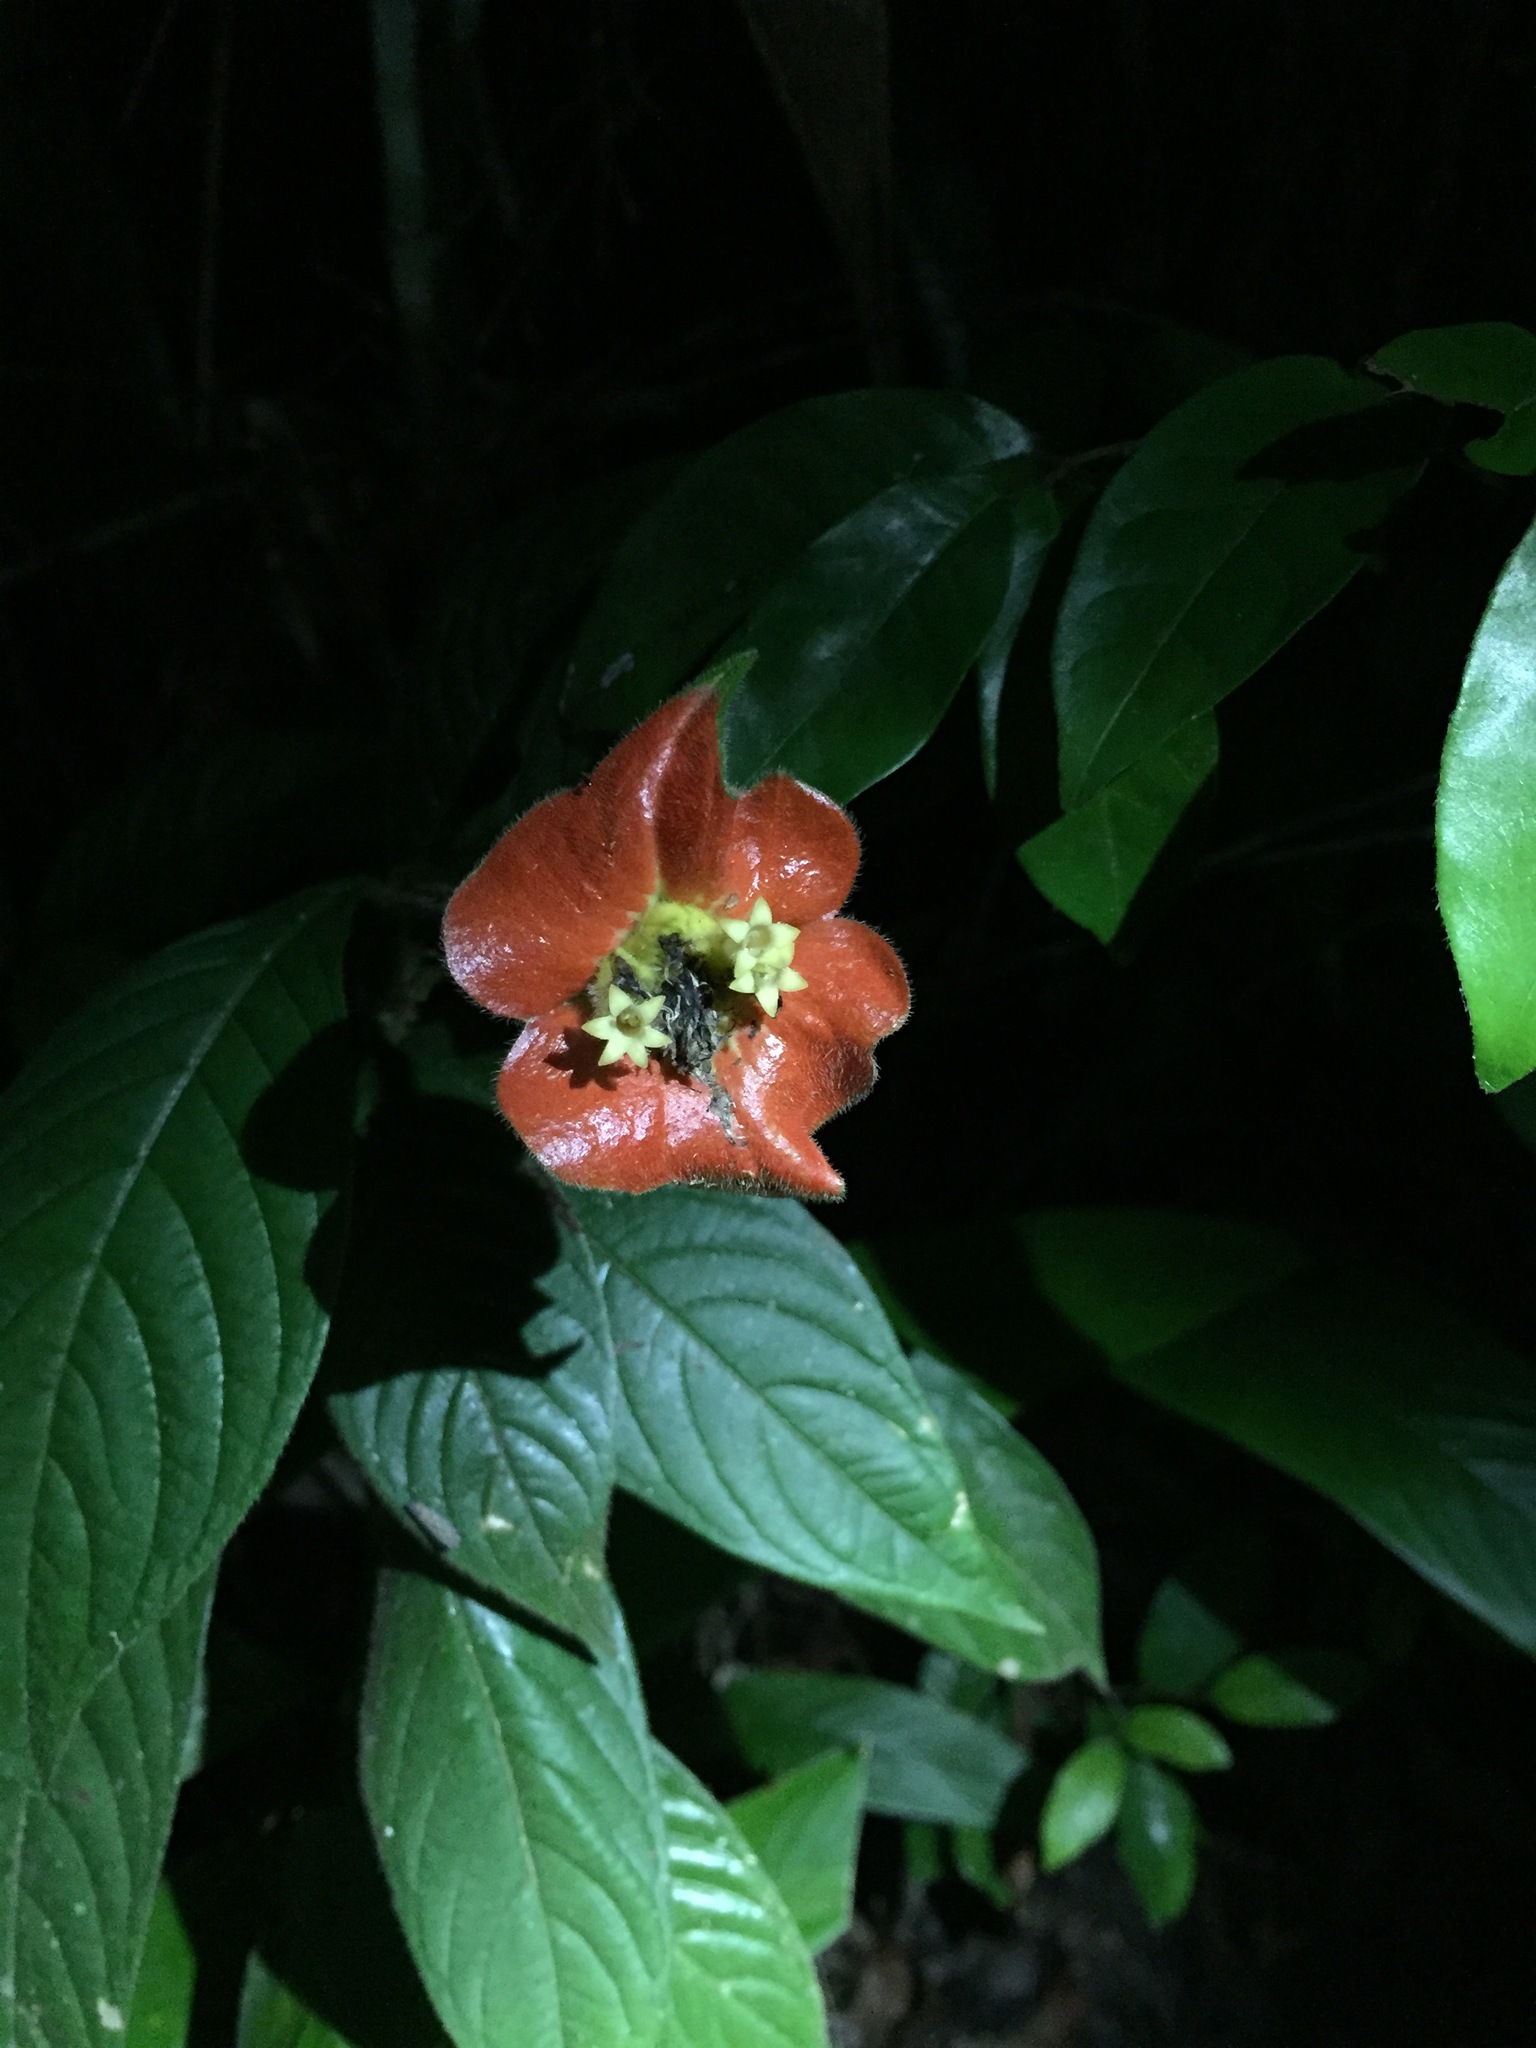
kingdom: Plantae
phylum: Tracheophyta
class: Magnoliopsida
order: Gentianales
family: Rubiaceae
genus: Palicourea
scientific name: Palicourea tomentosa
